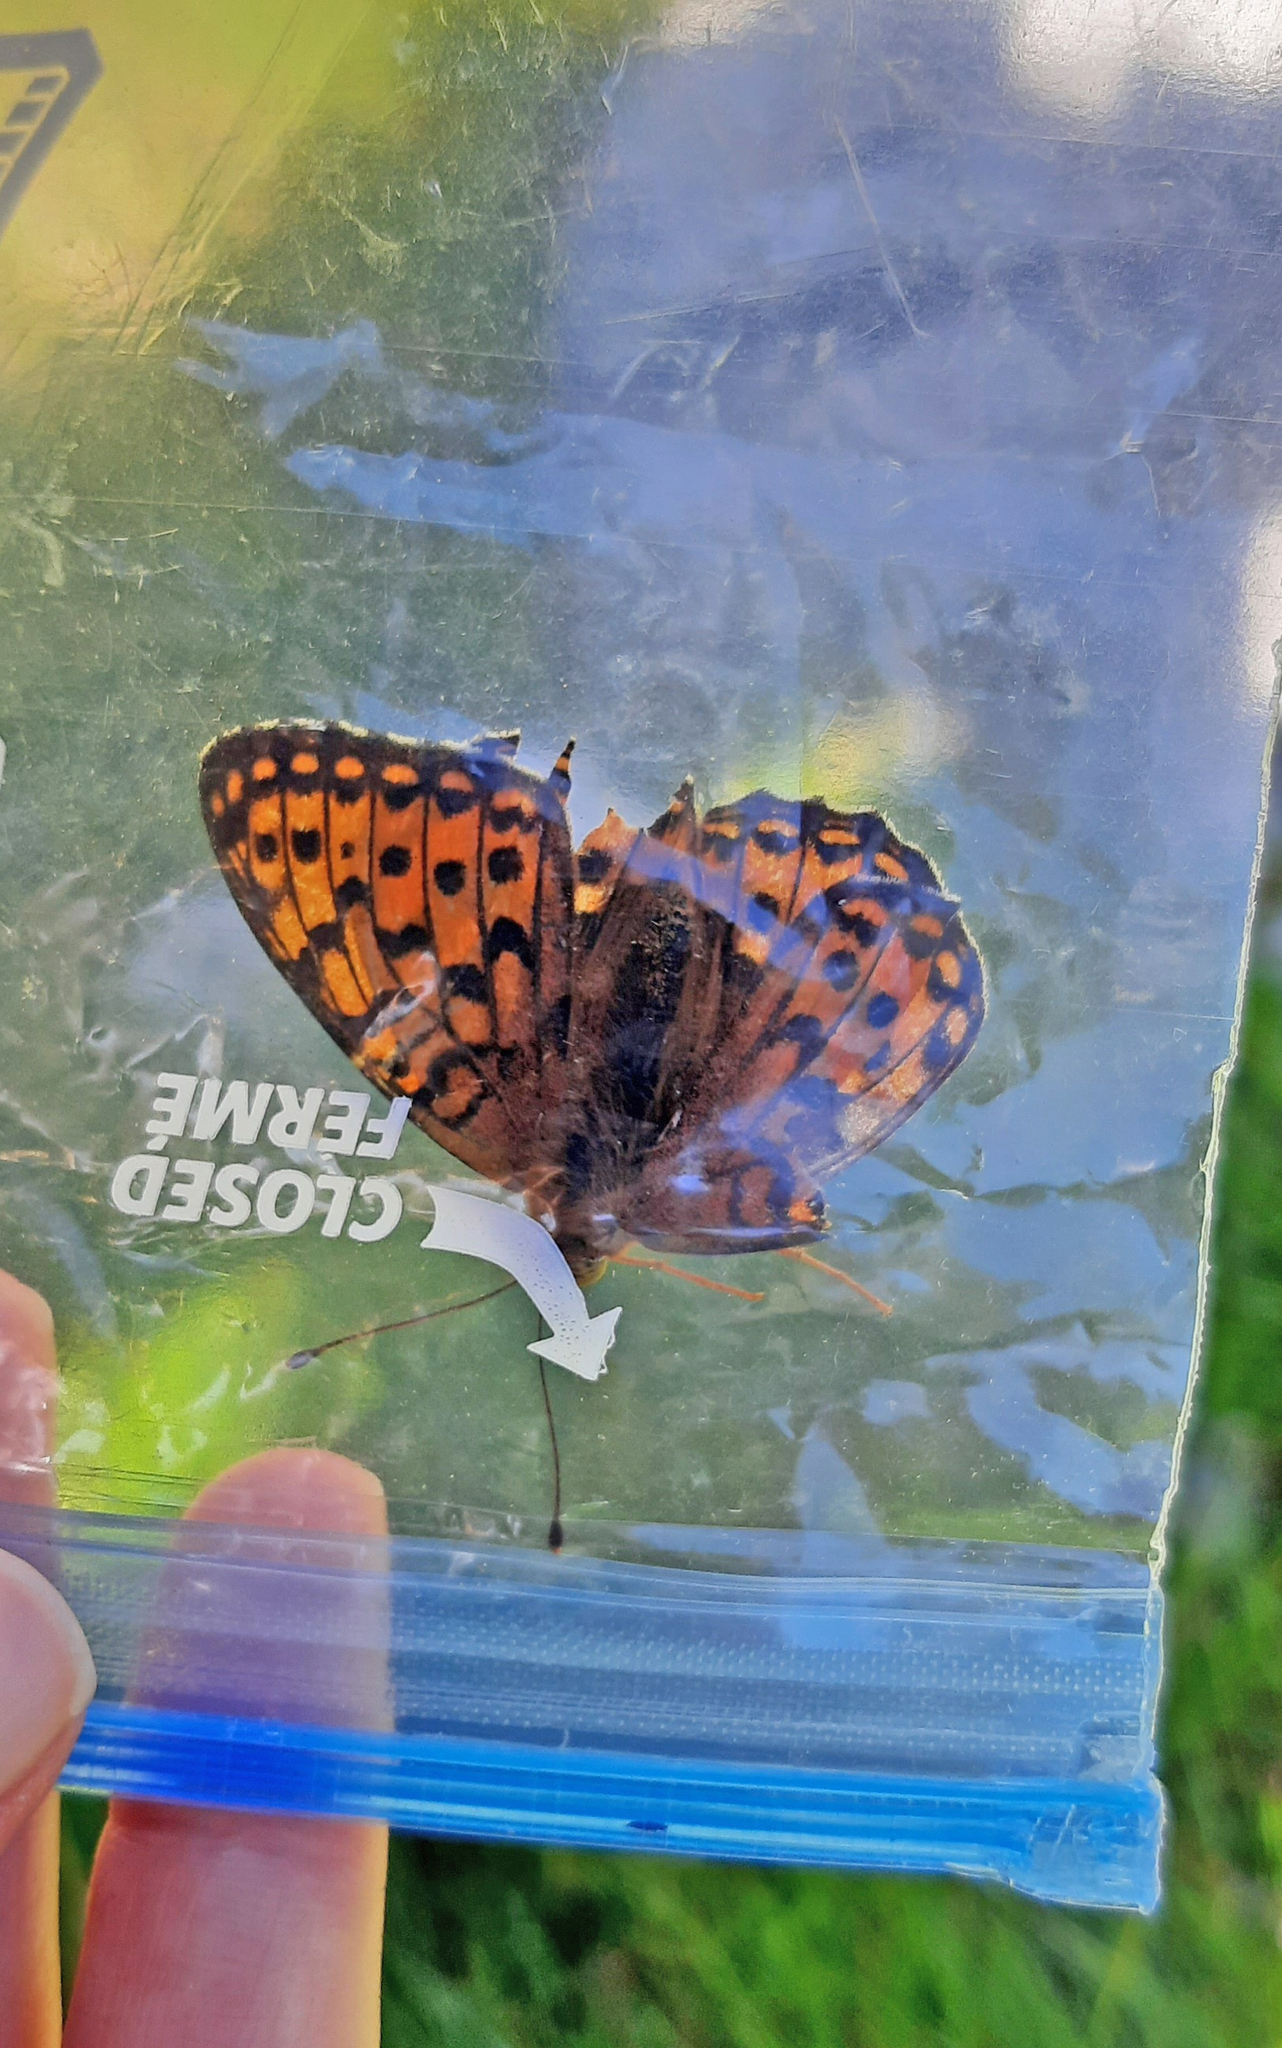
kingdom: Animalia
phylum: Arthropoda
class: Insecta
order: Lepidoptera
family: Nymphalidae
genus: Speyeria
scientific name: Speyeria aglaja
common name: Dark green fritillary
